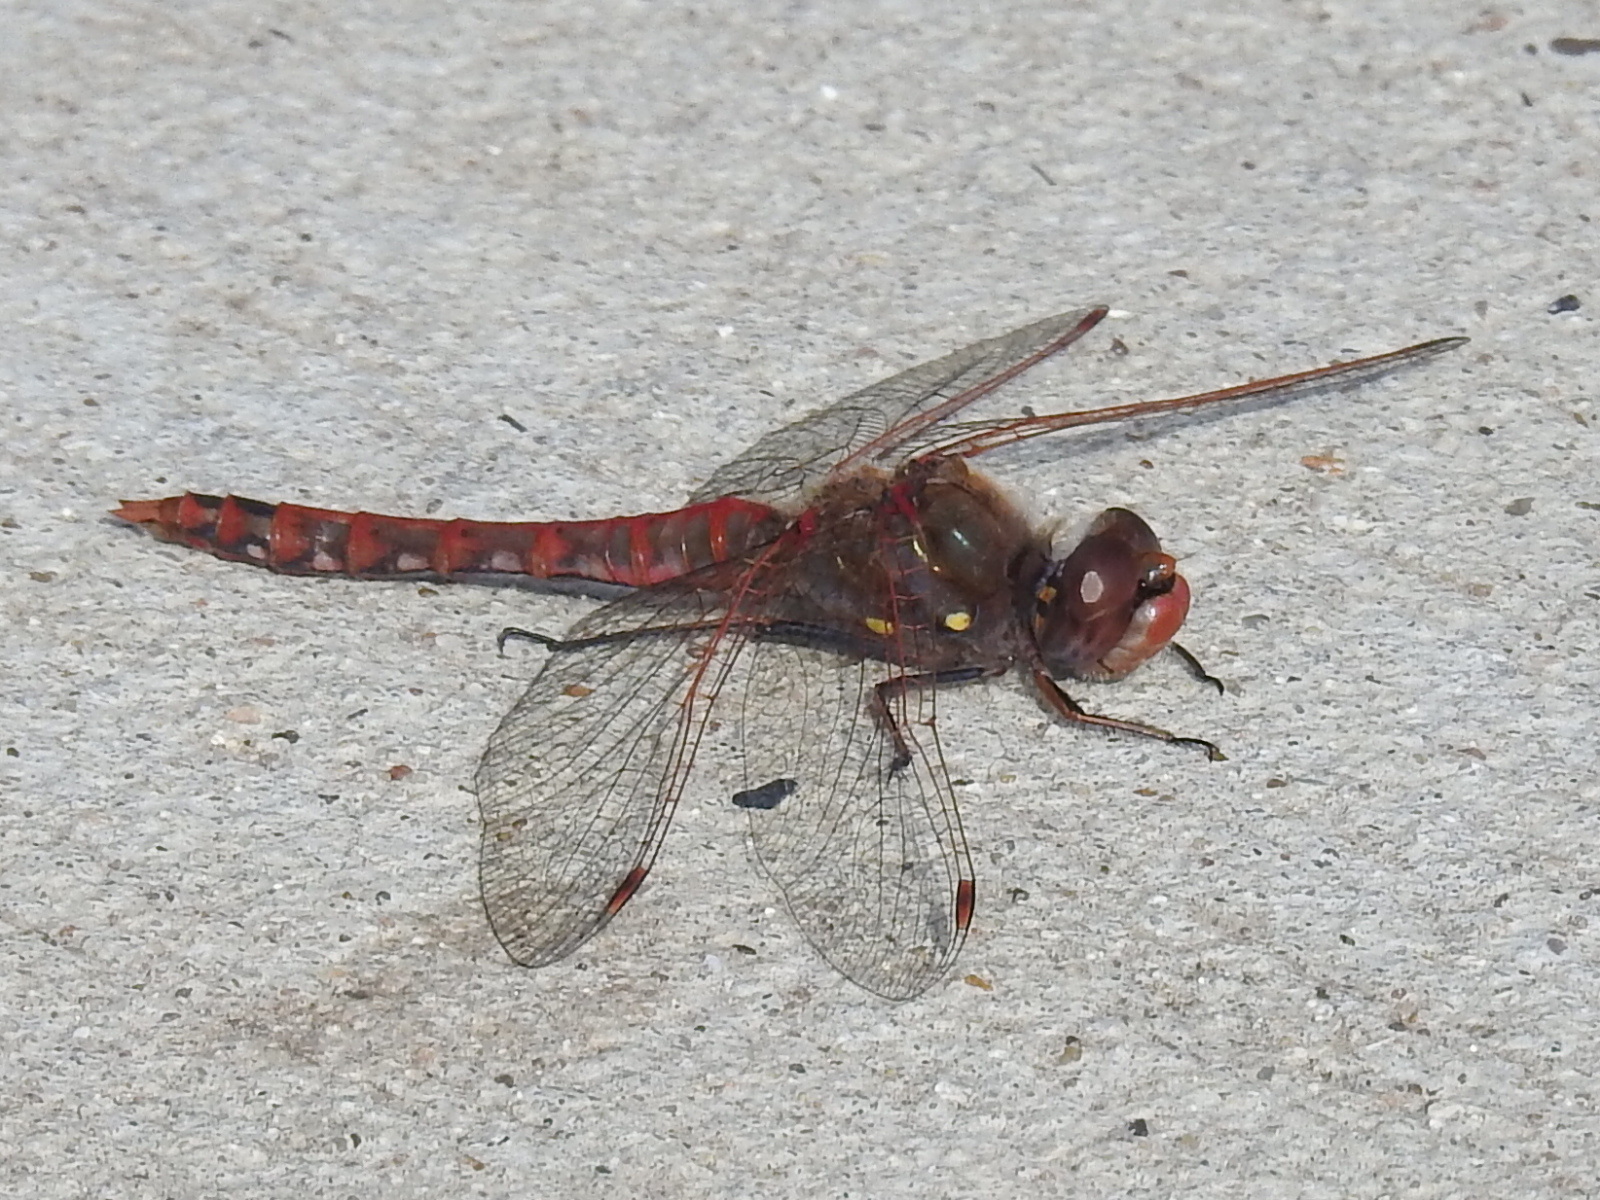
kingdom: Animalia
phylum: Arthropoda
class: Insecta
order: Odonata
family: Libellulidae
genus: Sympetrum
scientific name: Sympetrum corruptum
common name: Variegated meadowhawk
